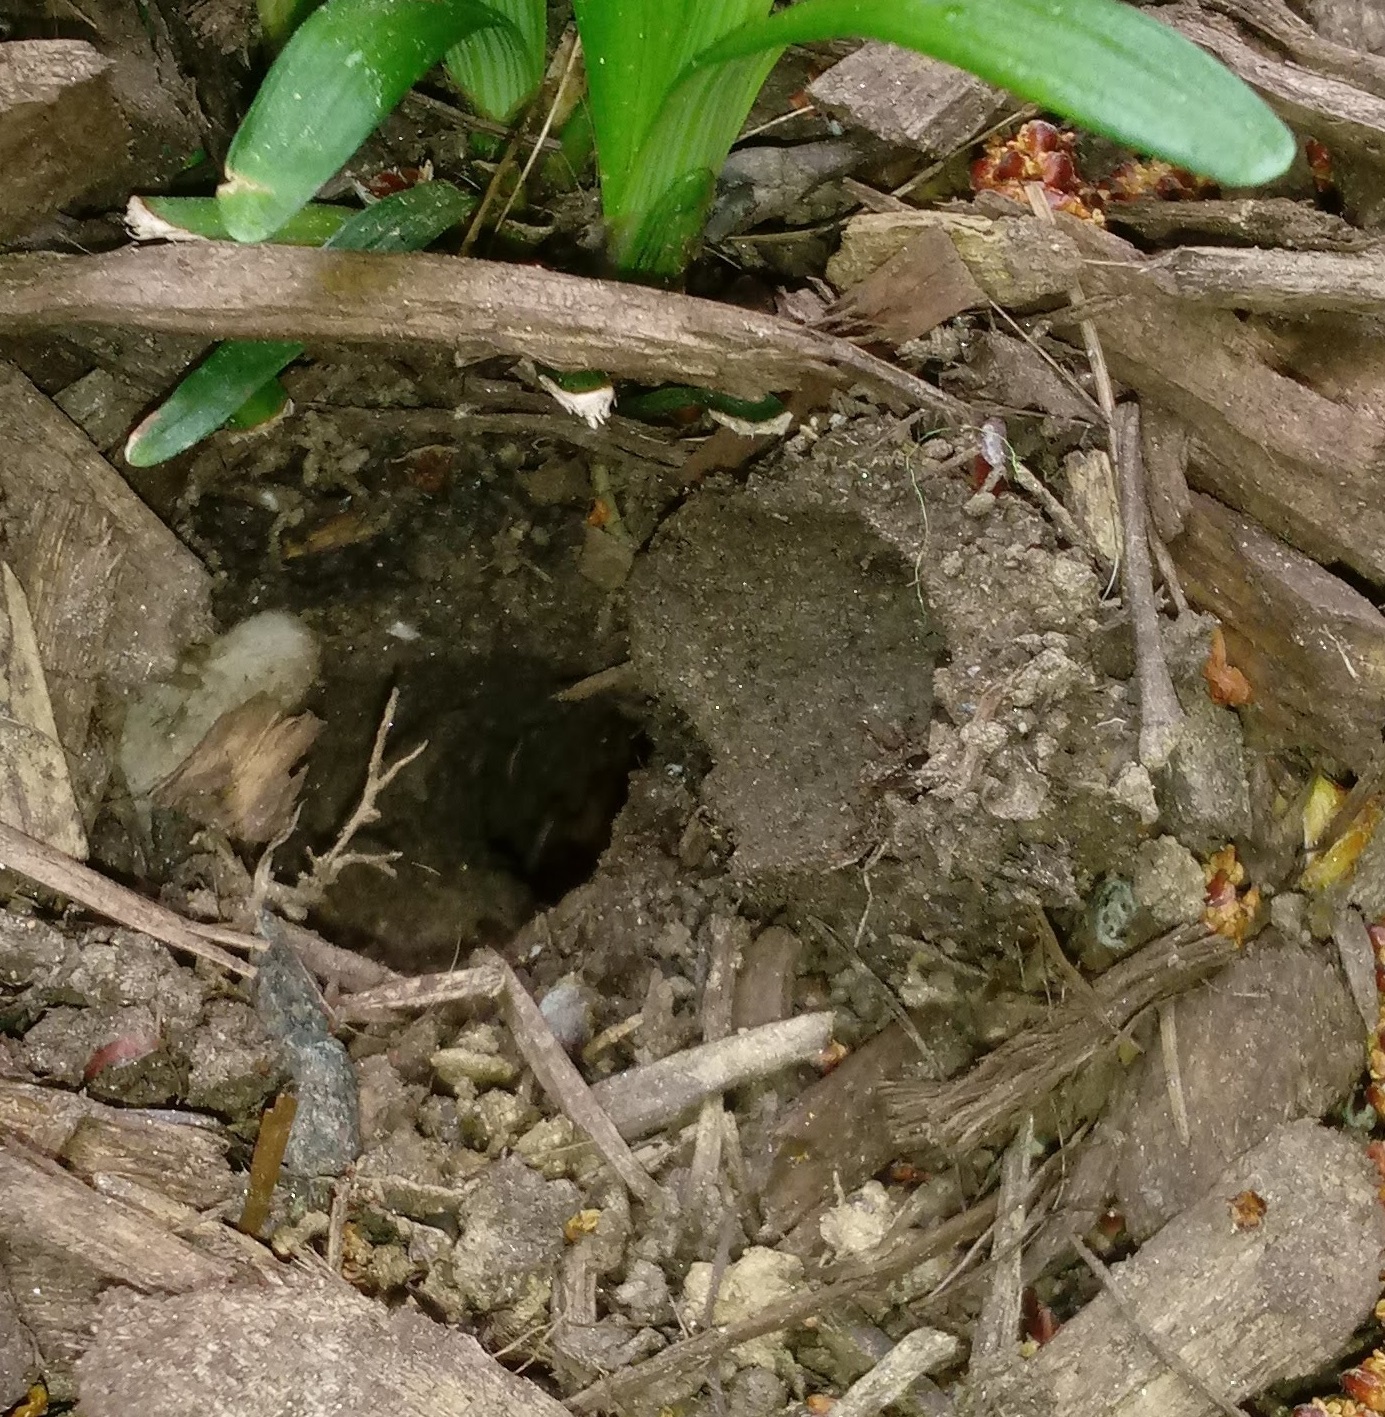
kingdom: Animalia
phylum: Arthropoda
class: Insecta
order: Hemiptera
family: Cicadidae
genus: Magicicada
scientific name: Magicicada
